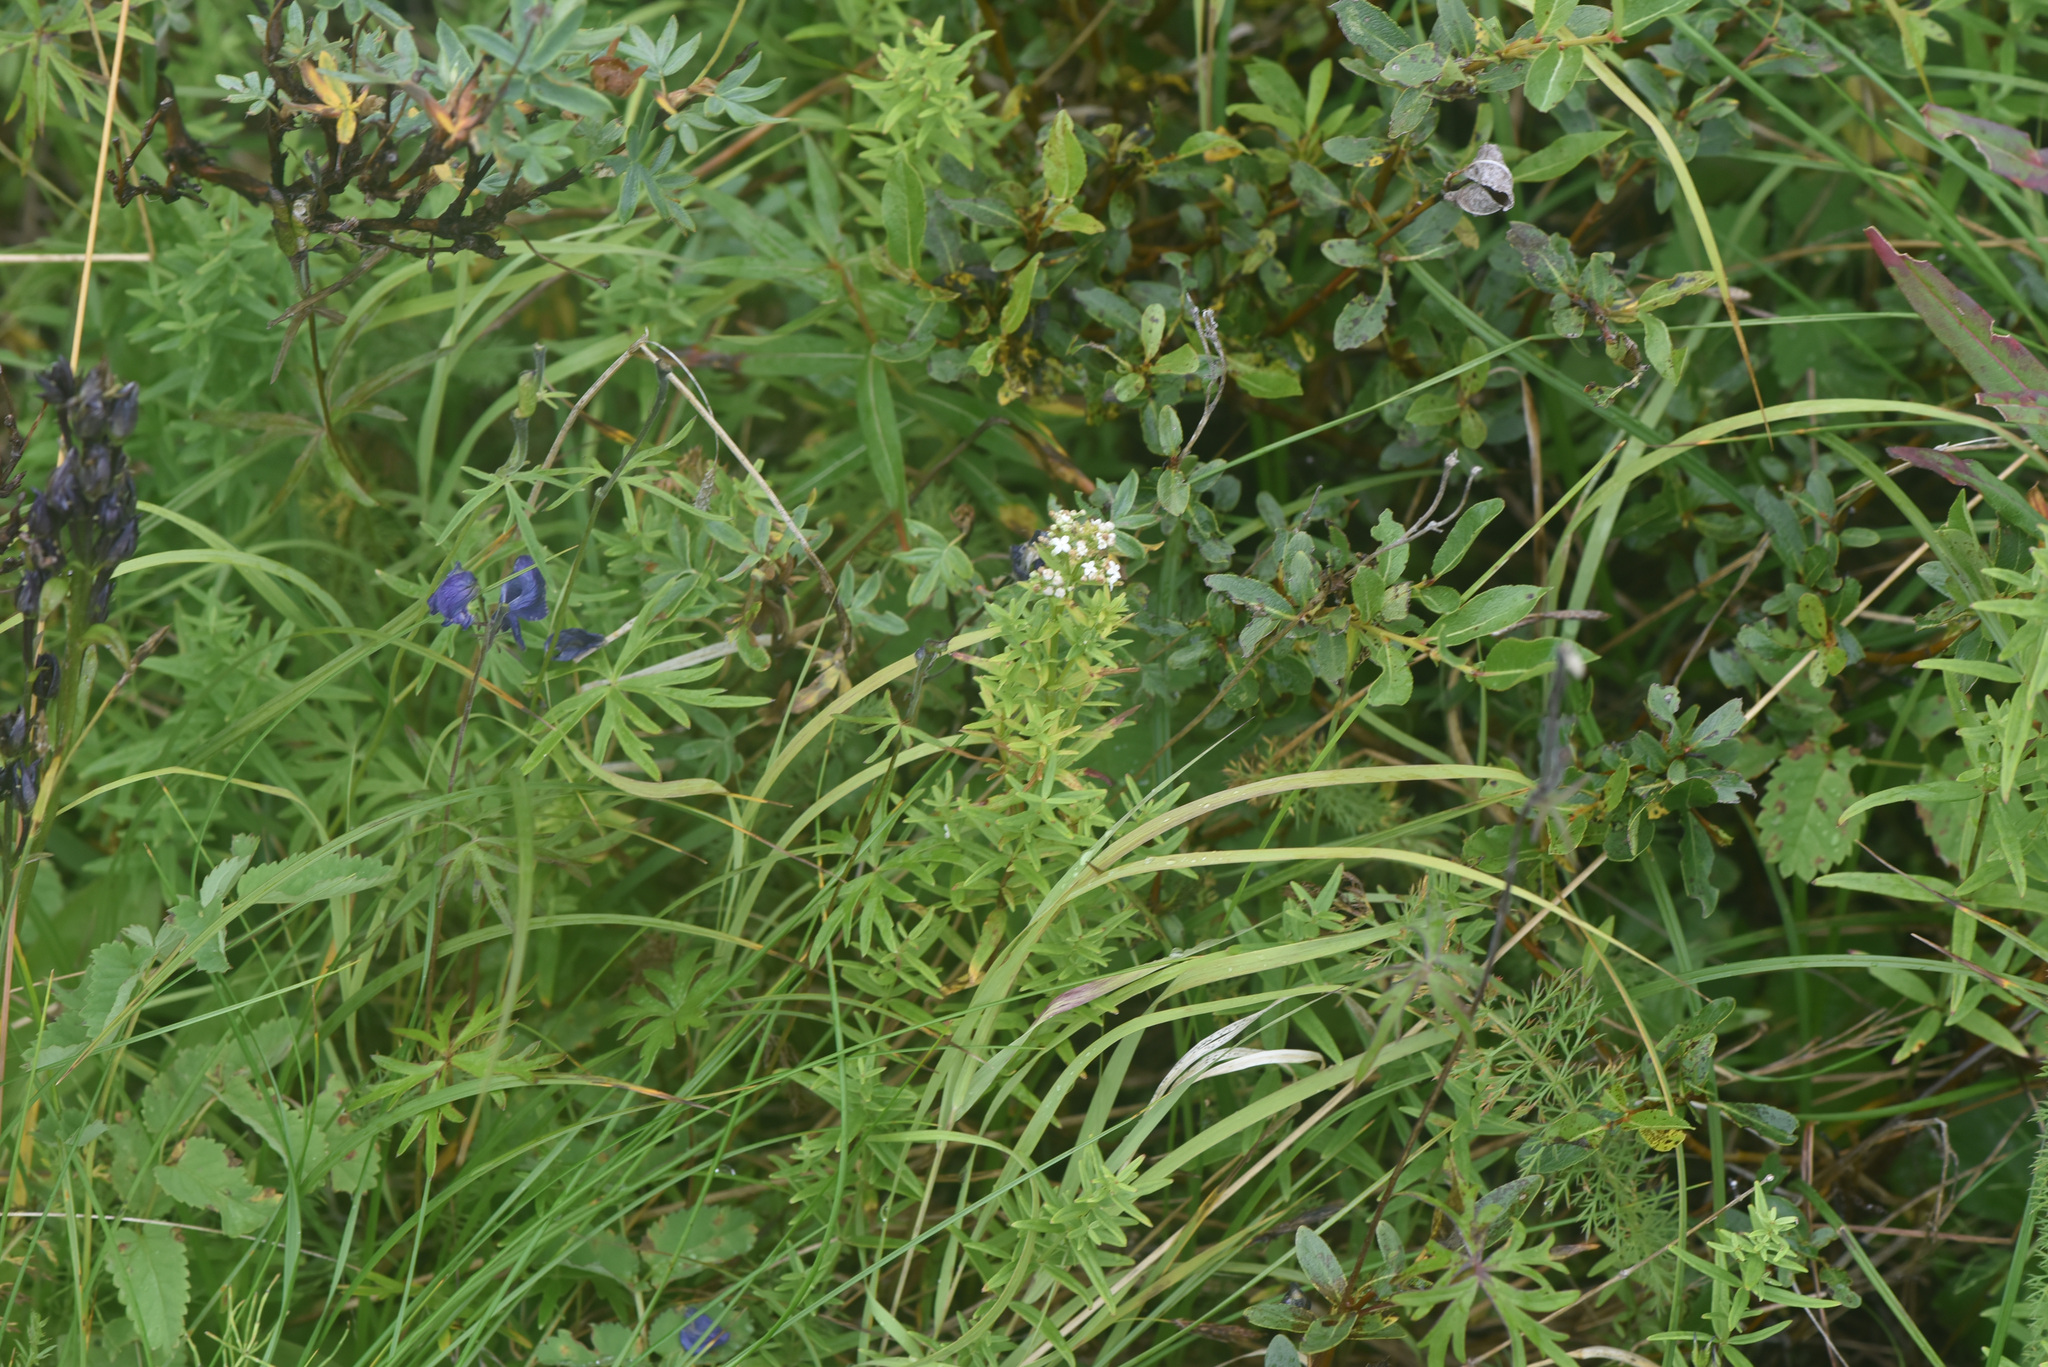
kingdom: Plantae
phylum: Tracheophyta
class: Magnoliopsida
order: Gentianales
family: Rubiaceae
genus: Galium
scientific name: Galium boreale
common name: Northern bedstraw
